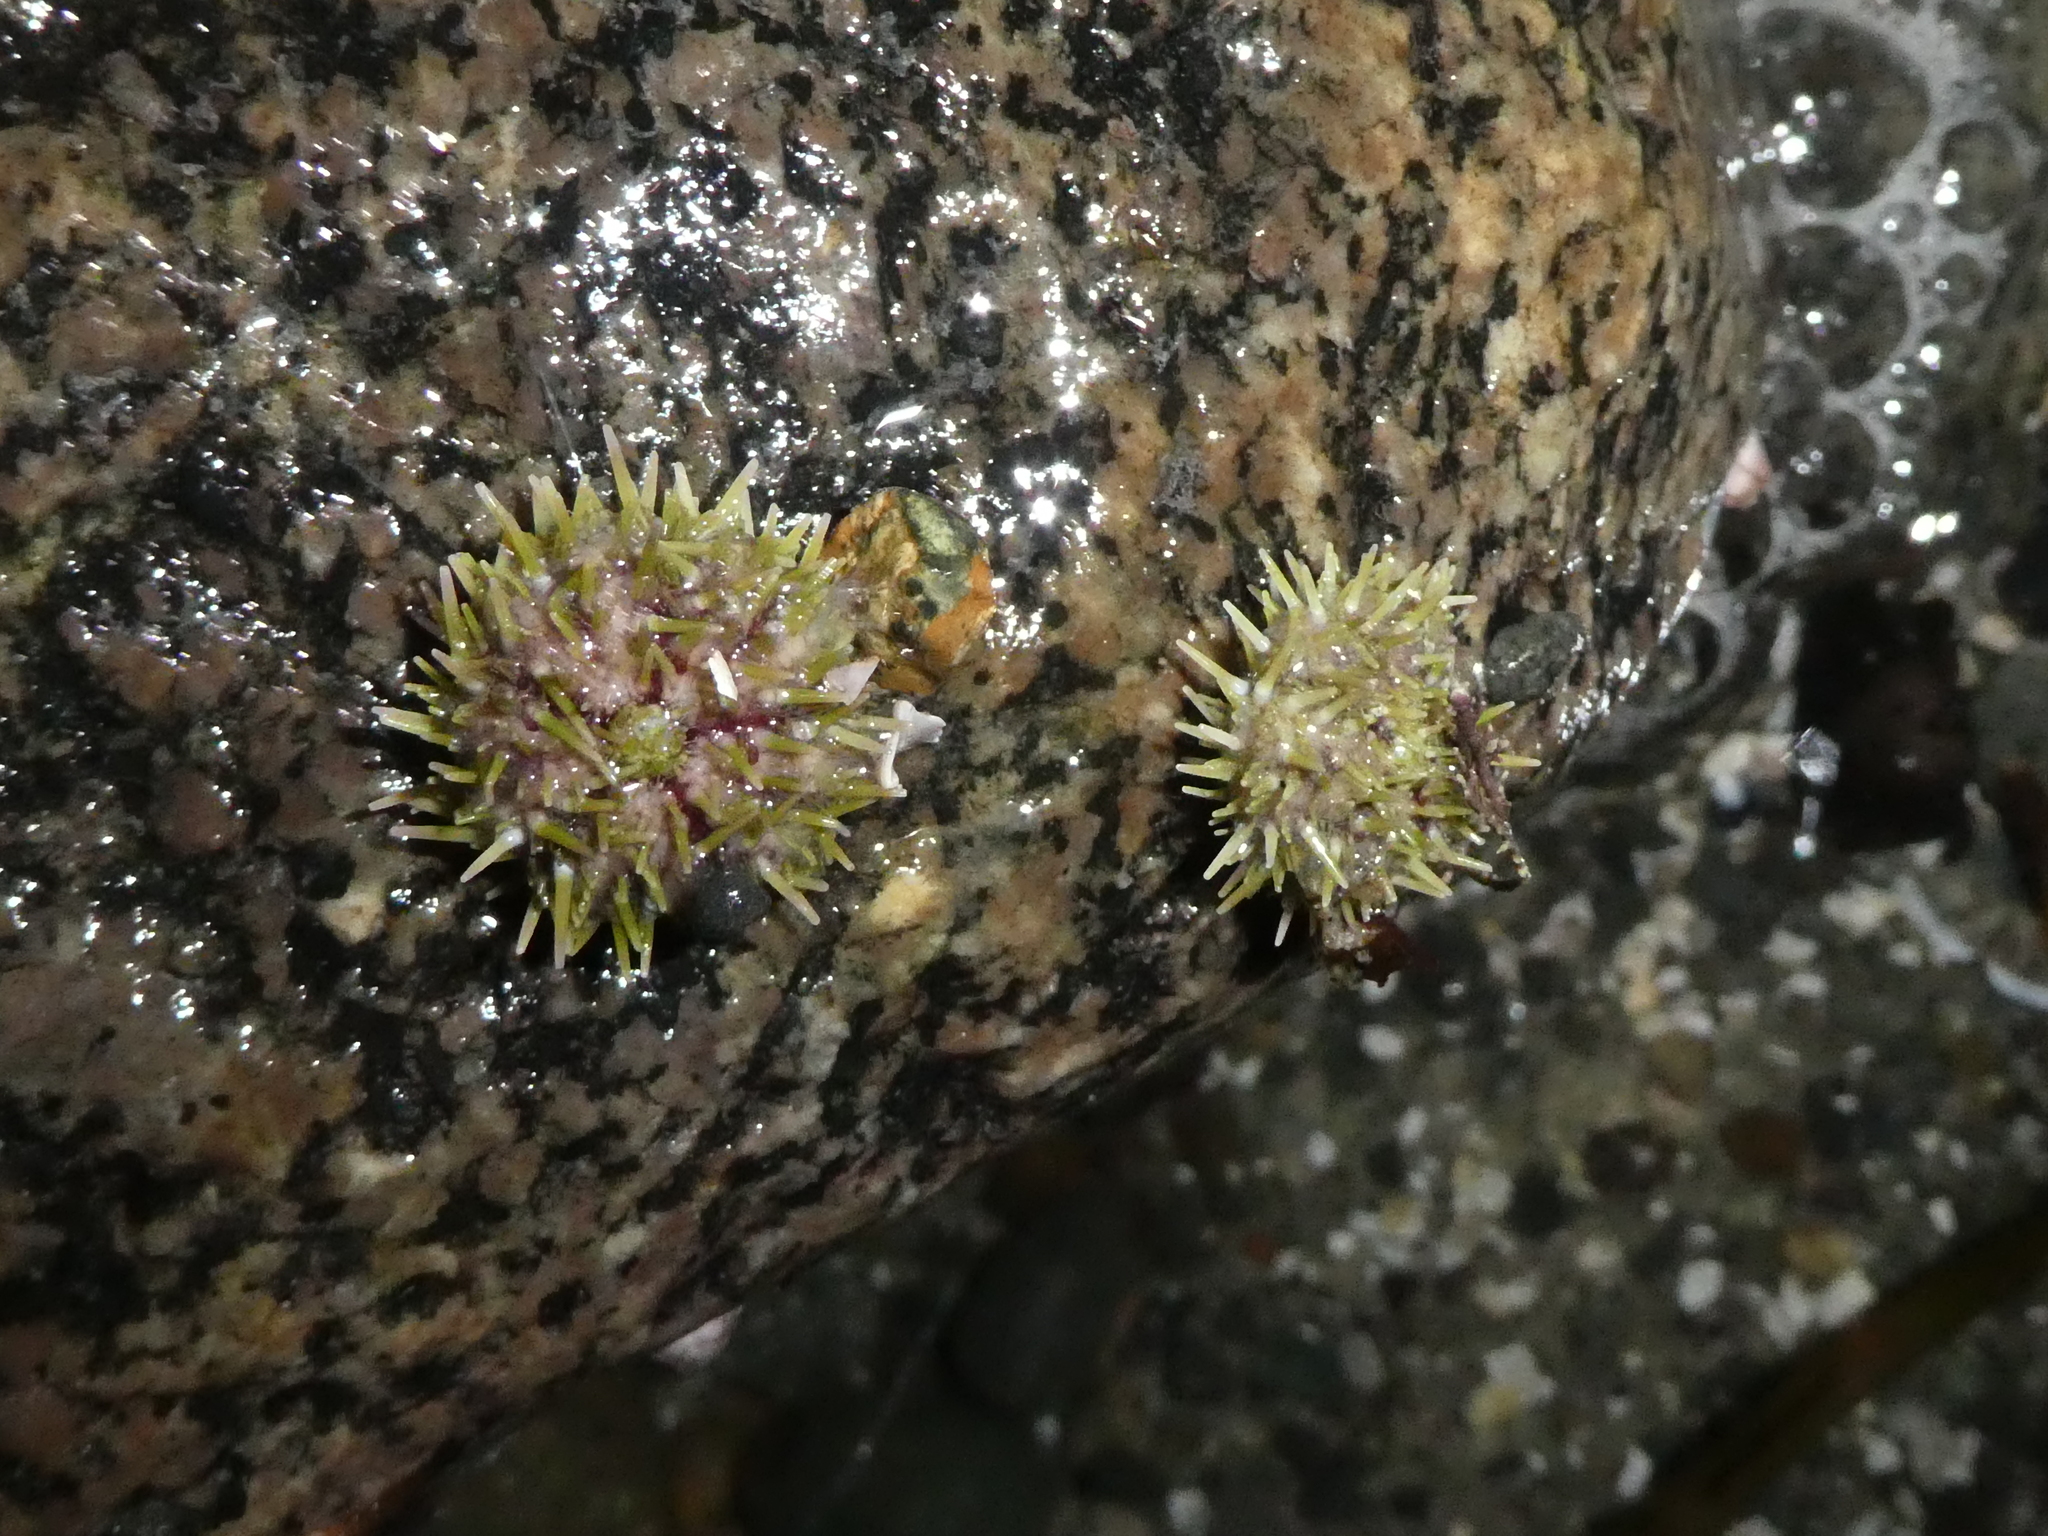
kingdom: Animalia
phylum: Echinodermata
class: Echinoidea
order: Camarodonta
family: Strongylocentrotidae
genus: Strongylocentrotus
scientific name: Strongylocentrotus droebachiensis
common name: Northern sea urchin
